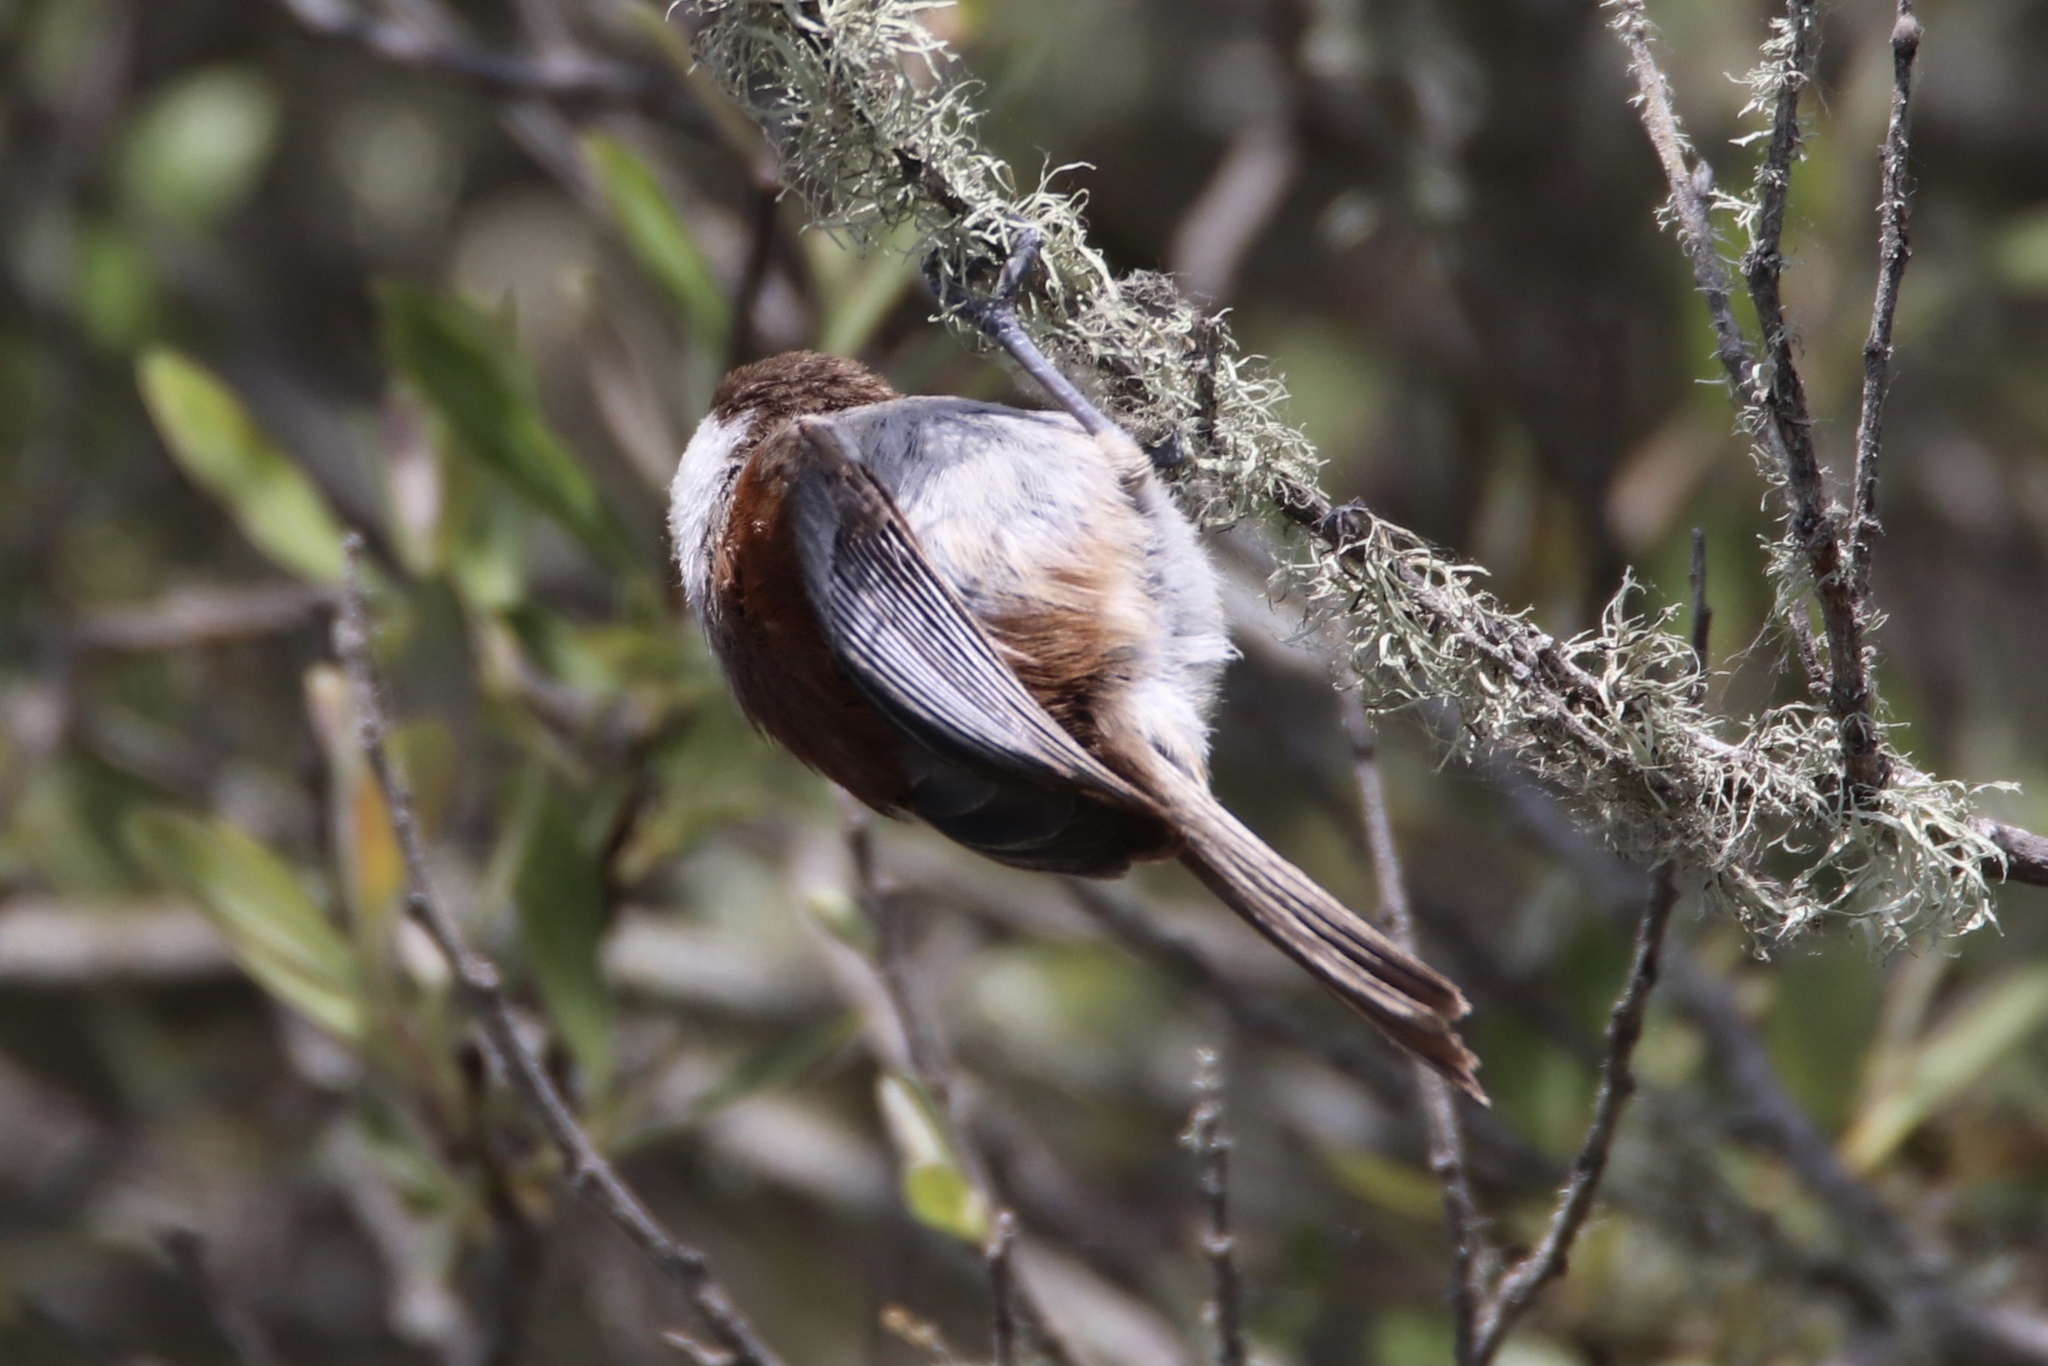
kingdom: Animalia
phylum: Chordata
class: Aves
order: Passeriformes
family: Paridae
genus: Poecile
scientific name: Poecile rufescens
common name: Chestnut-backed chickadee
